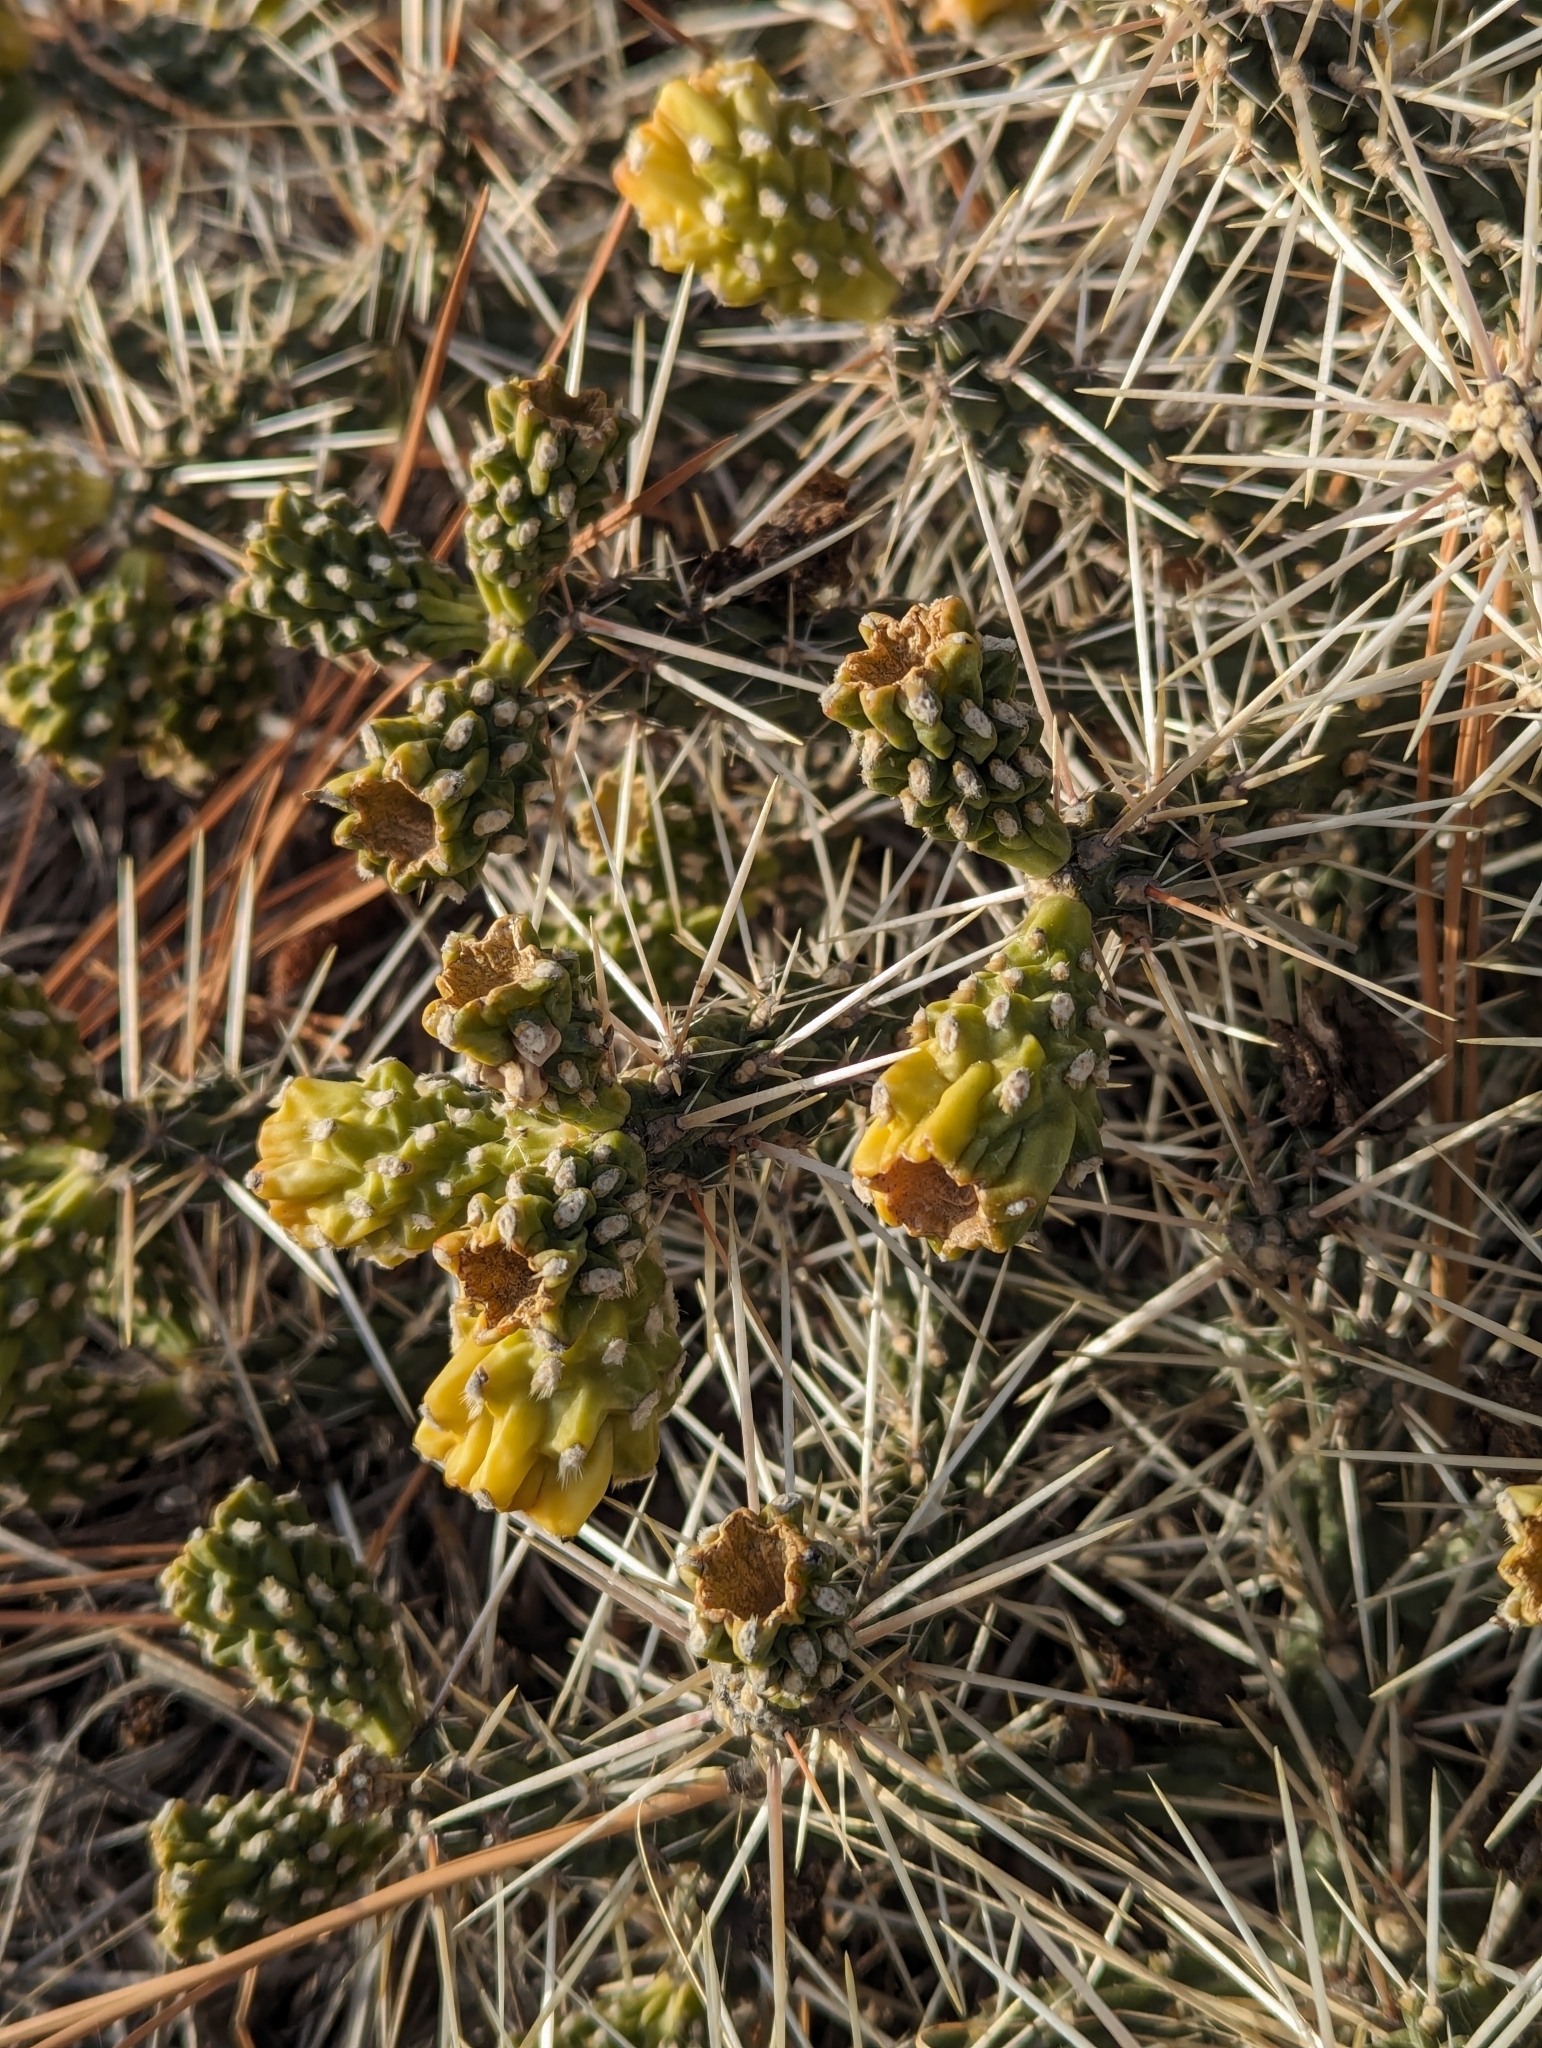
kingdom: Plantae
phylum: Tracheophyta
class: Magnoliopsida
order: Caryophyllales
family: Cactaceae
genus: Cylindropuntia
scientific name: Cylindropuntia whipplei
